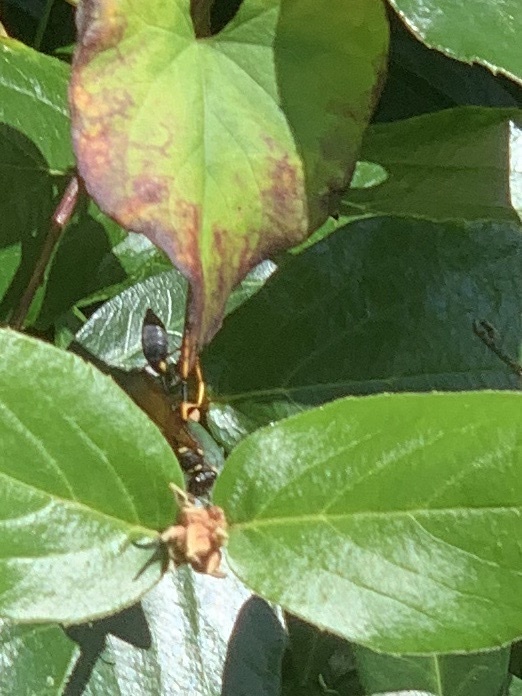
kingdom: Animalia
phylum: Arthropoda
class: Insecta
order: Hymenoptera
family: Sphecidae
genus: Sceliphron
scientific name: Sceliphron caementarium
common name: Mud dauber
